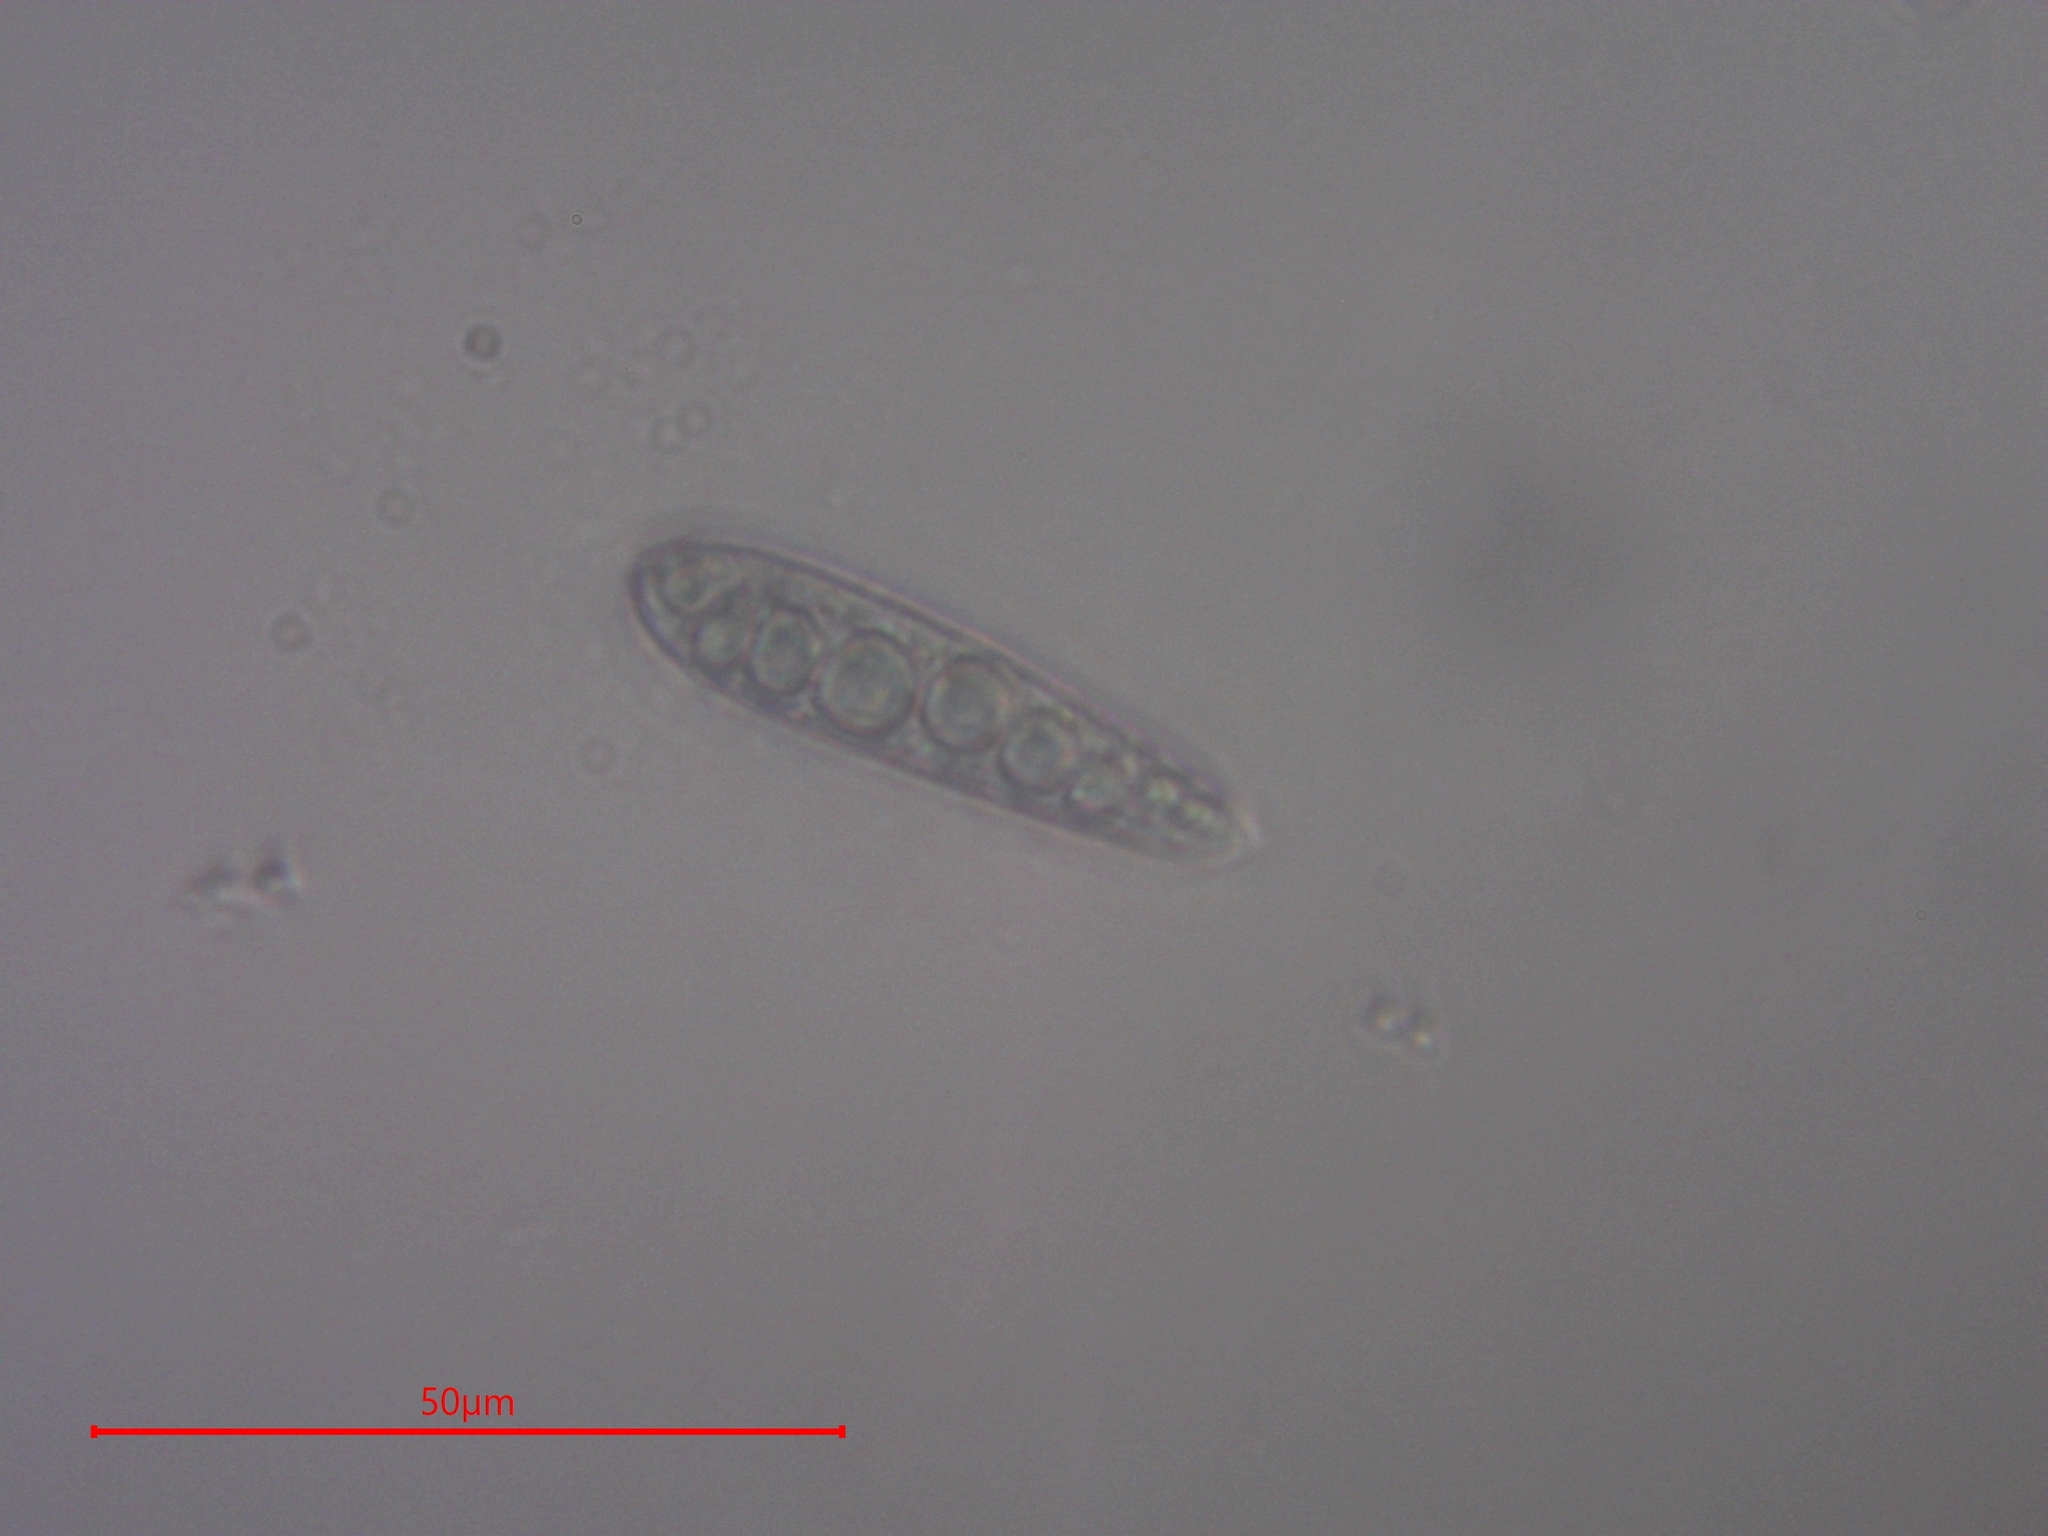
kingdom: Fungi
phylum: Ascomycota
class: Dothideomycetes
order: Patellariales
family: Patellariaceae
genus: Patellaria
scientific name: Patellaria atrata
